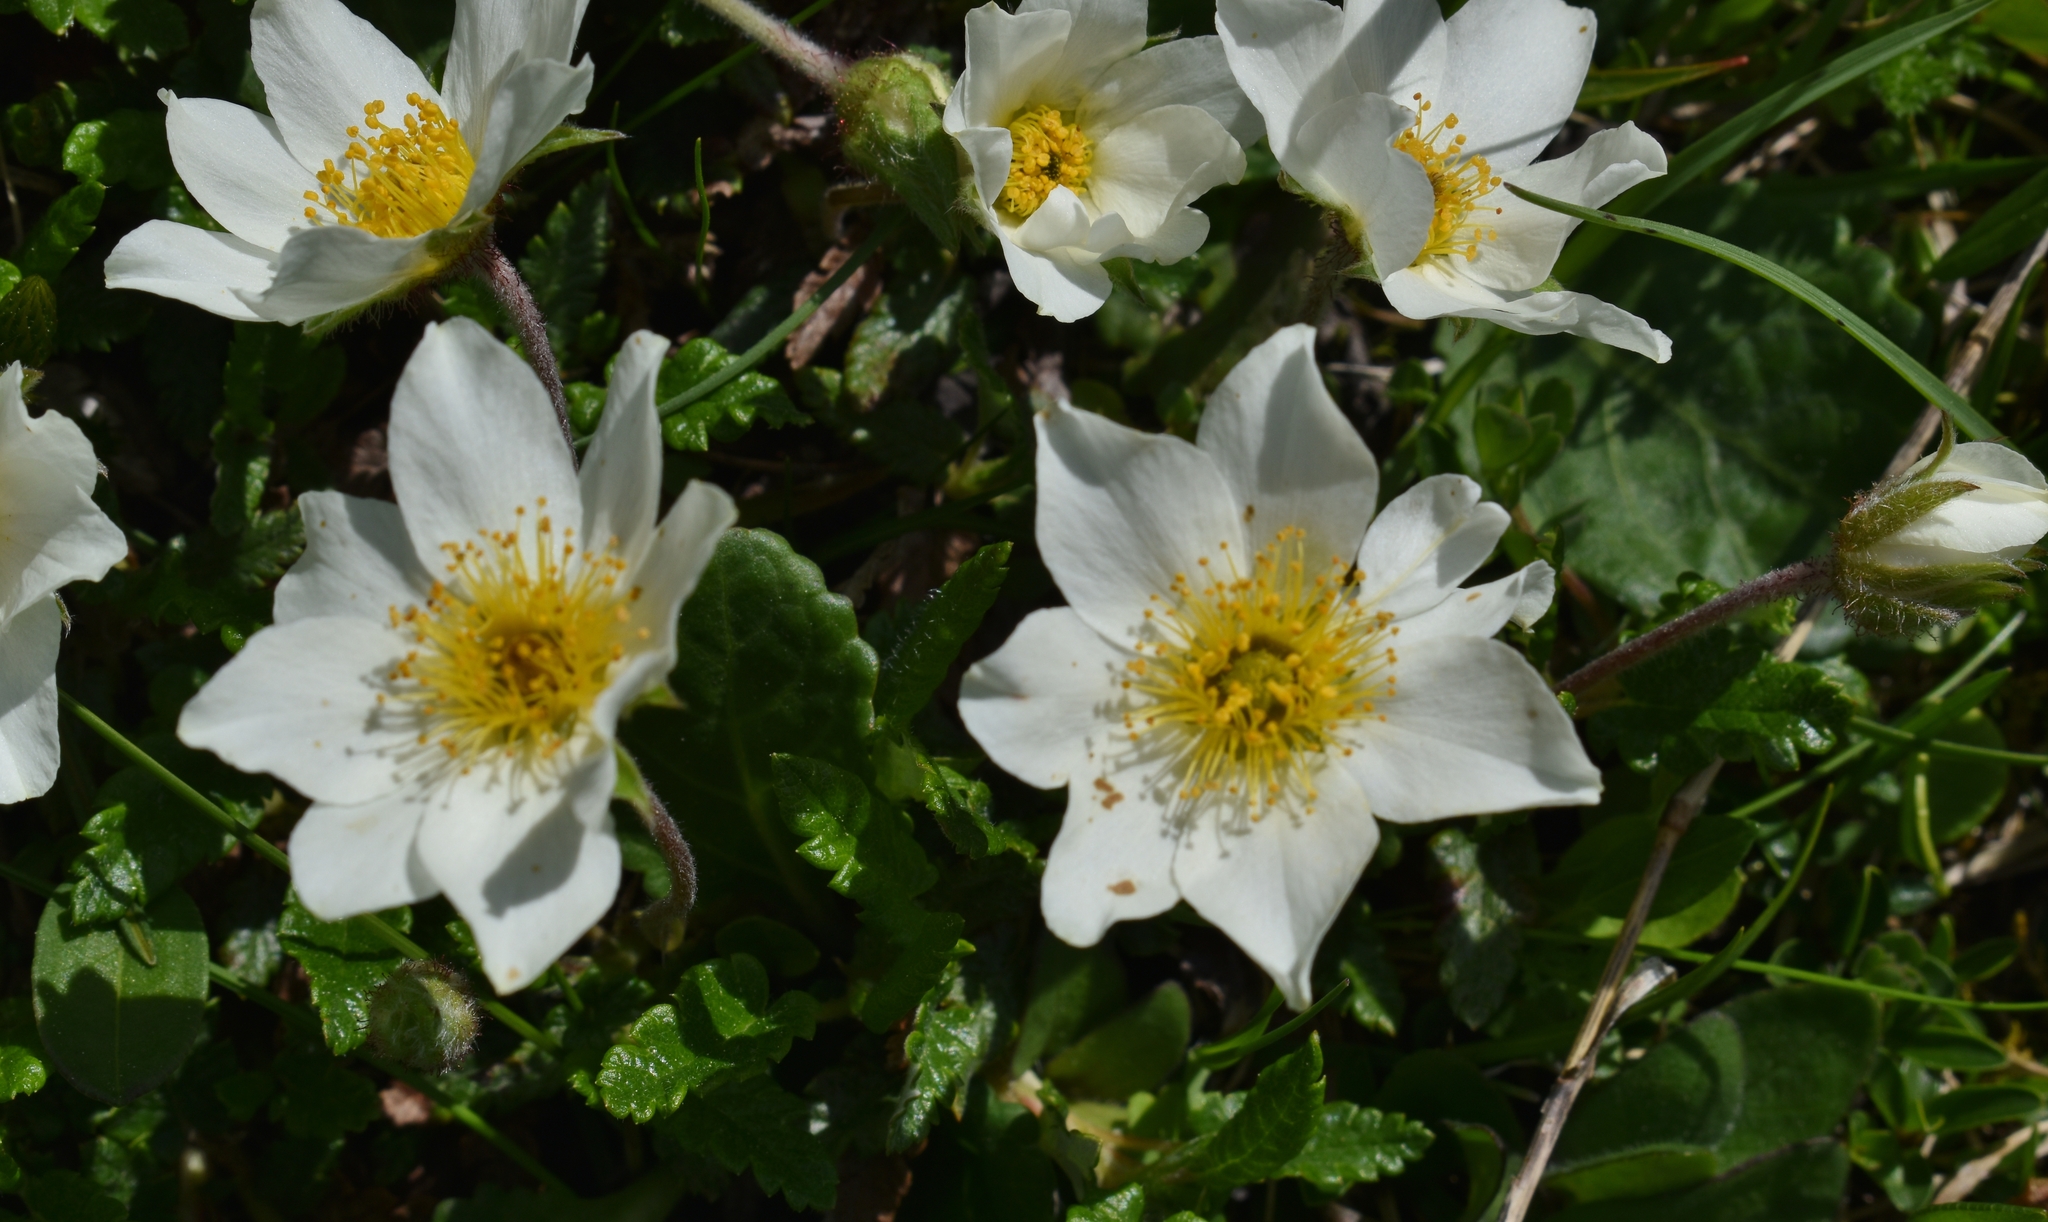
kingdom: Plantae
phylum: Tracheophyta
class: Magnoliopsida
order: Rosales
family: Rosaceae
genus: Dryas
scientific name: Dryas octopetala
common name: Eight-petal mountain-avens
